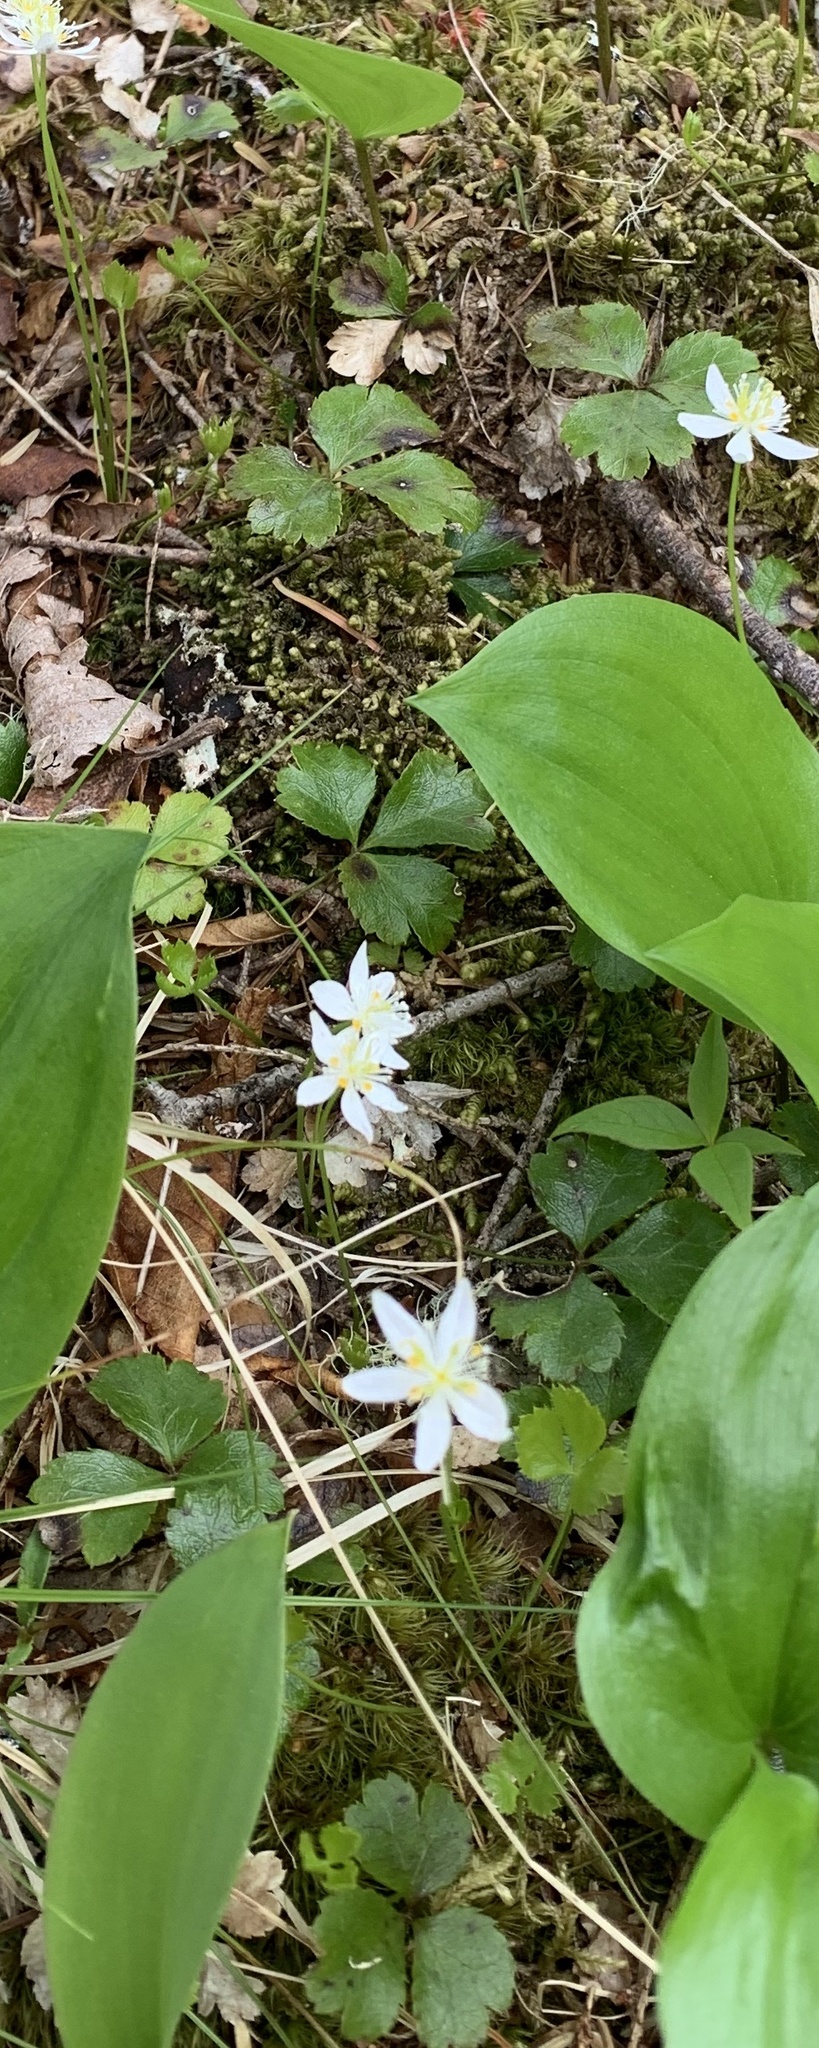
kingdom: Plantae
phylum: Tracheophyta
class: Magnoliopsida
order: Ranunculales
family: Ranunculaceae
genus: Coptis
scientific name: Coptis trifolia
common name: Canker-root
